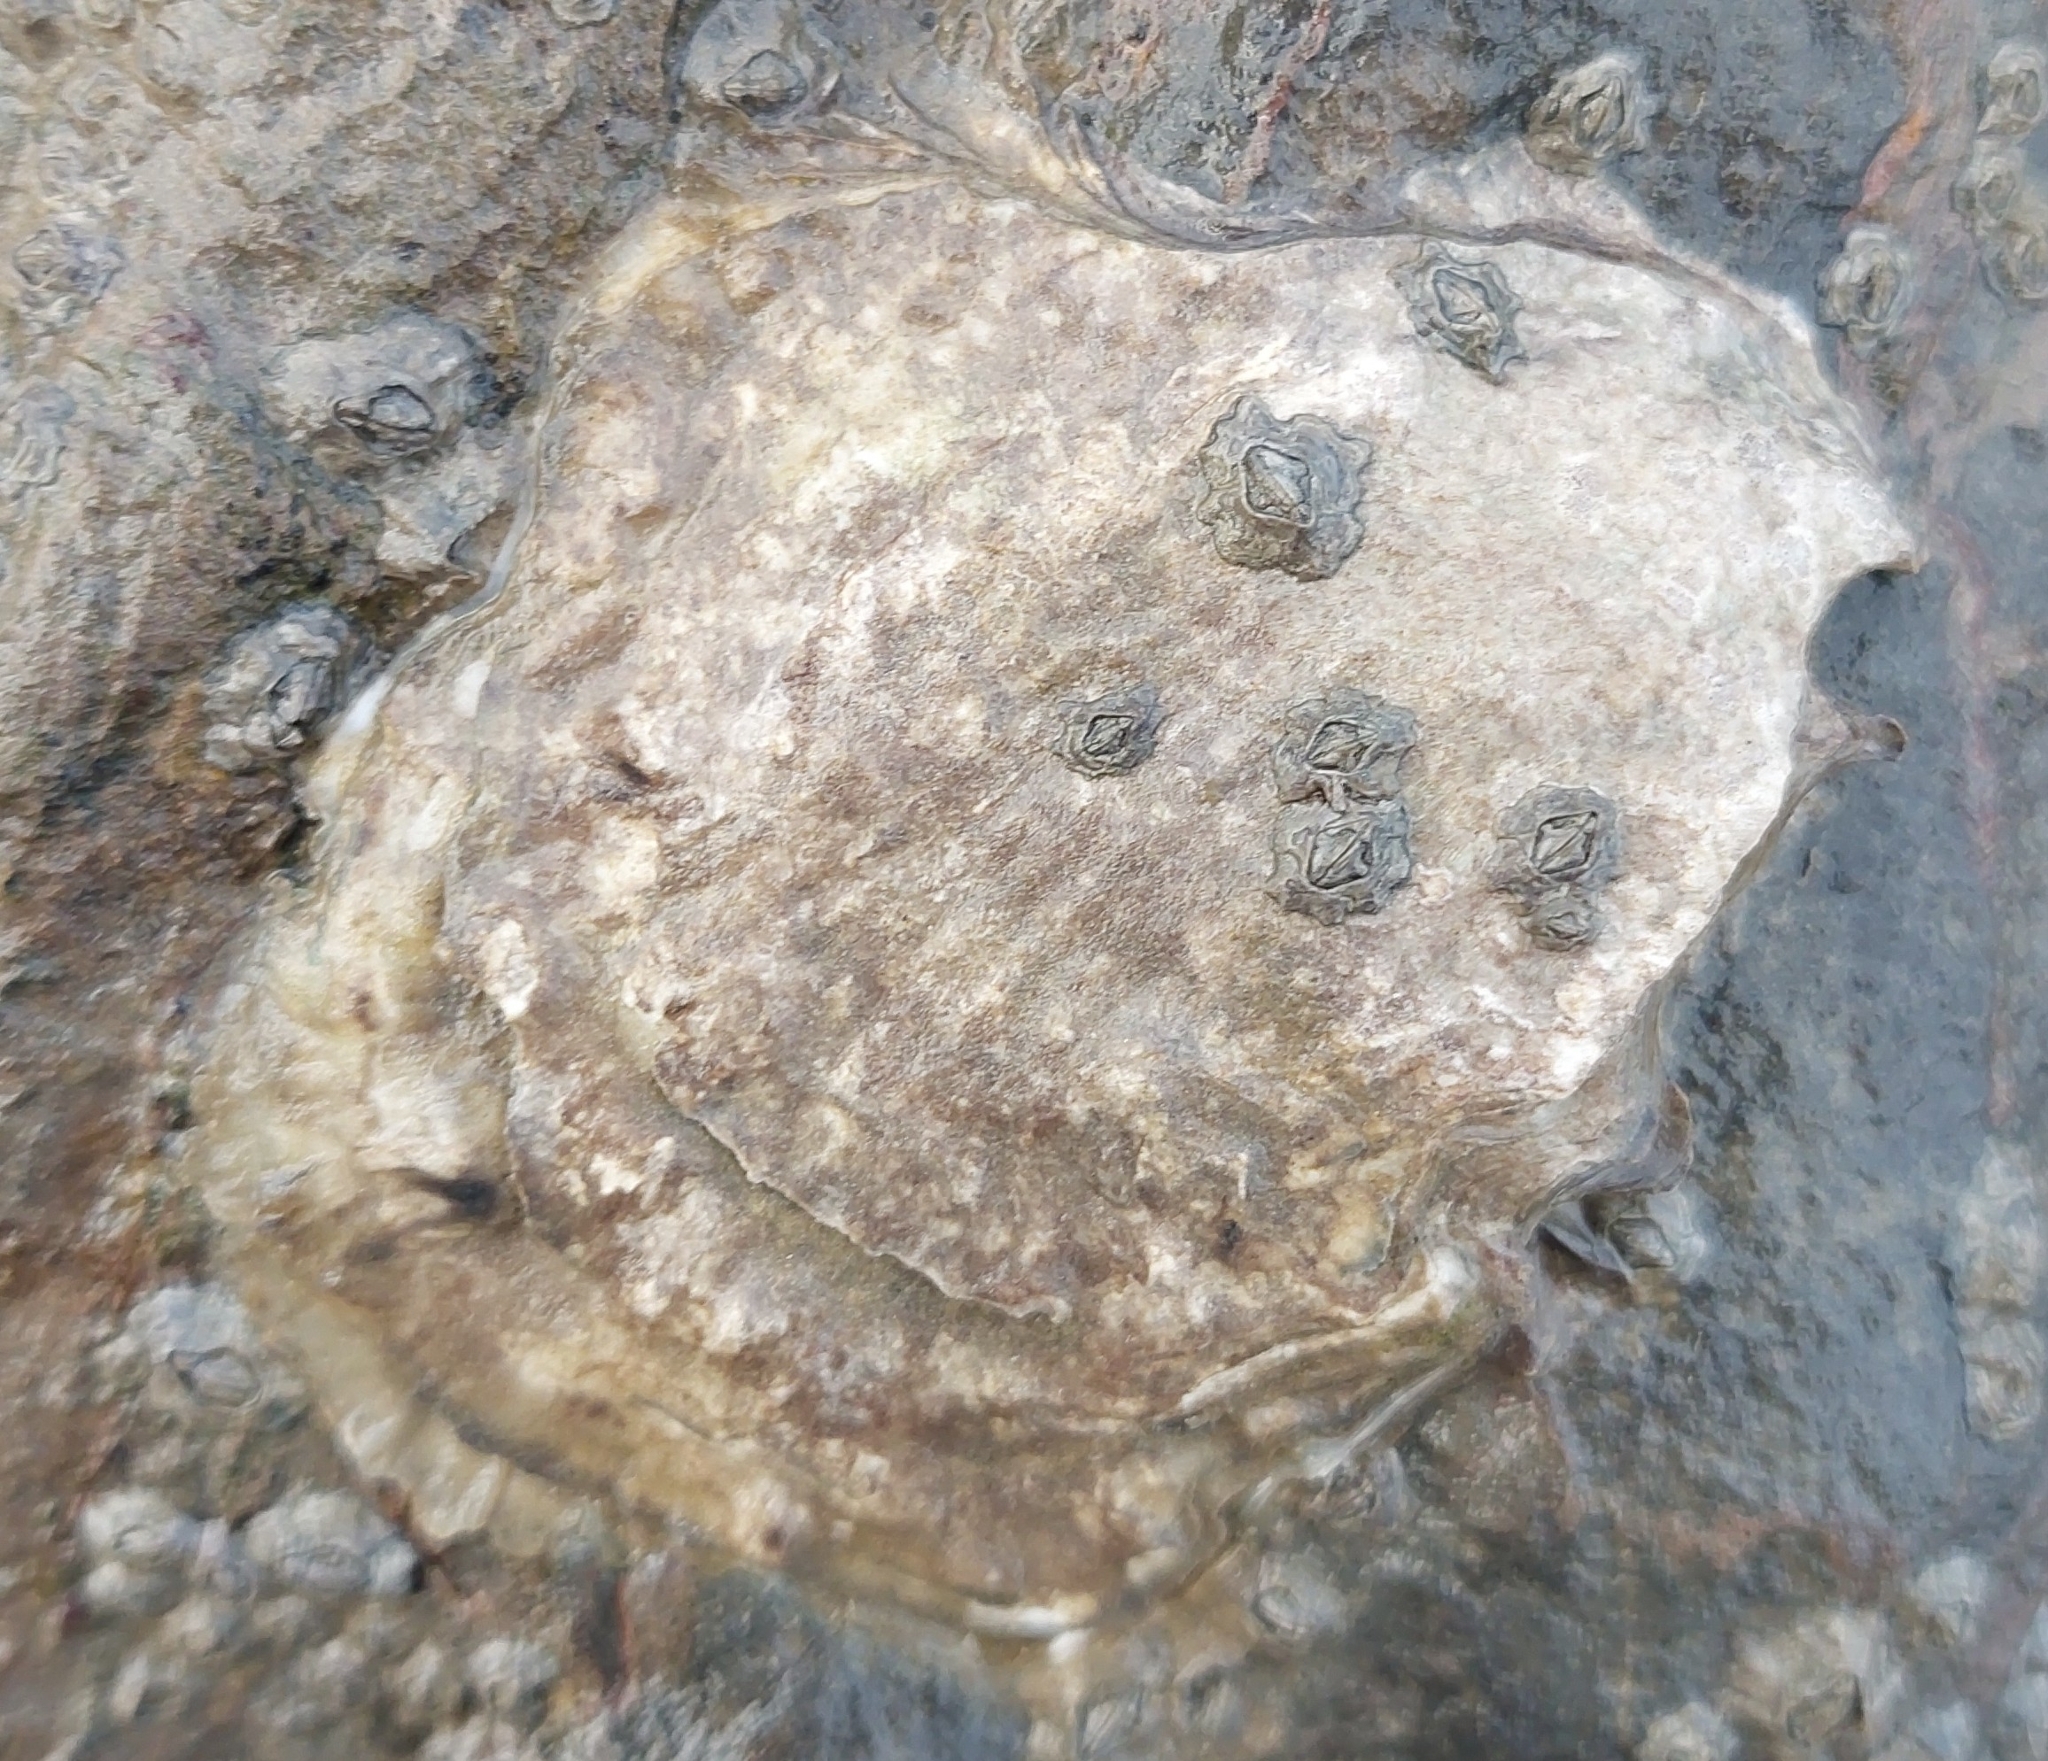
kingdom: Animalia
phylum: Mollusca
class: Bivalvia
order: Ostreida
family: Ostreidae
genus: Magallana
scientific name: Magallana gigas
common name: Pacific oyster
